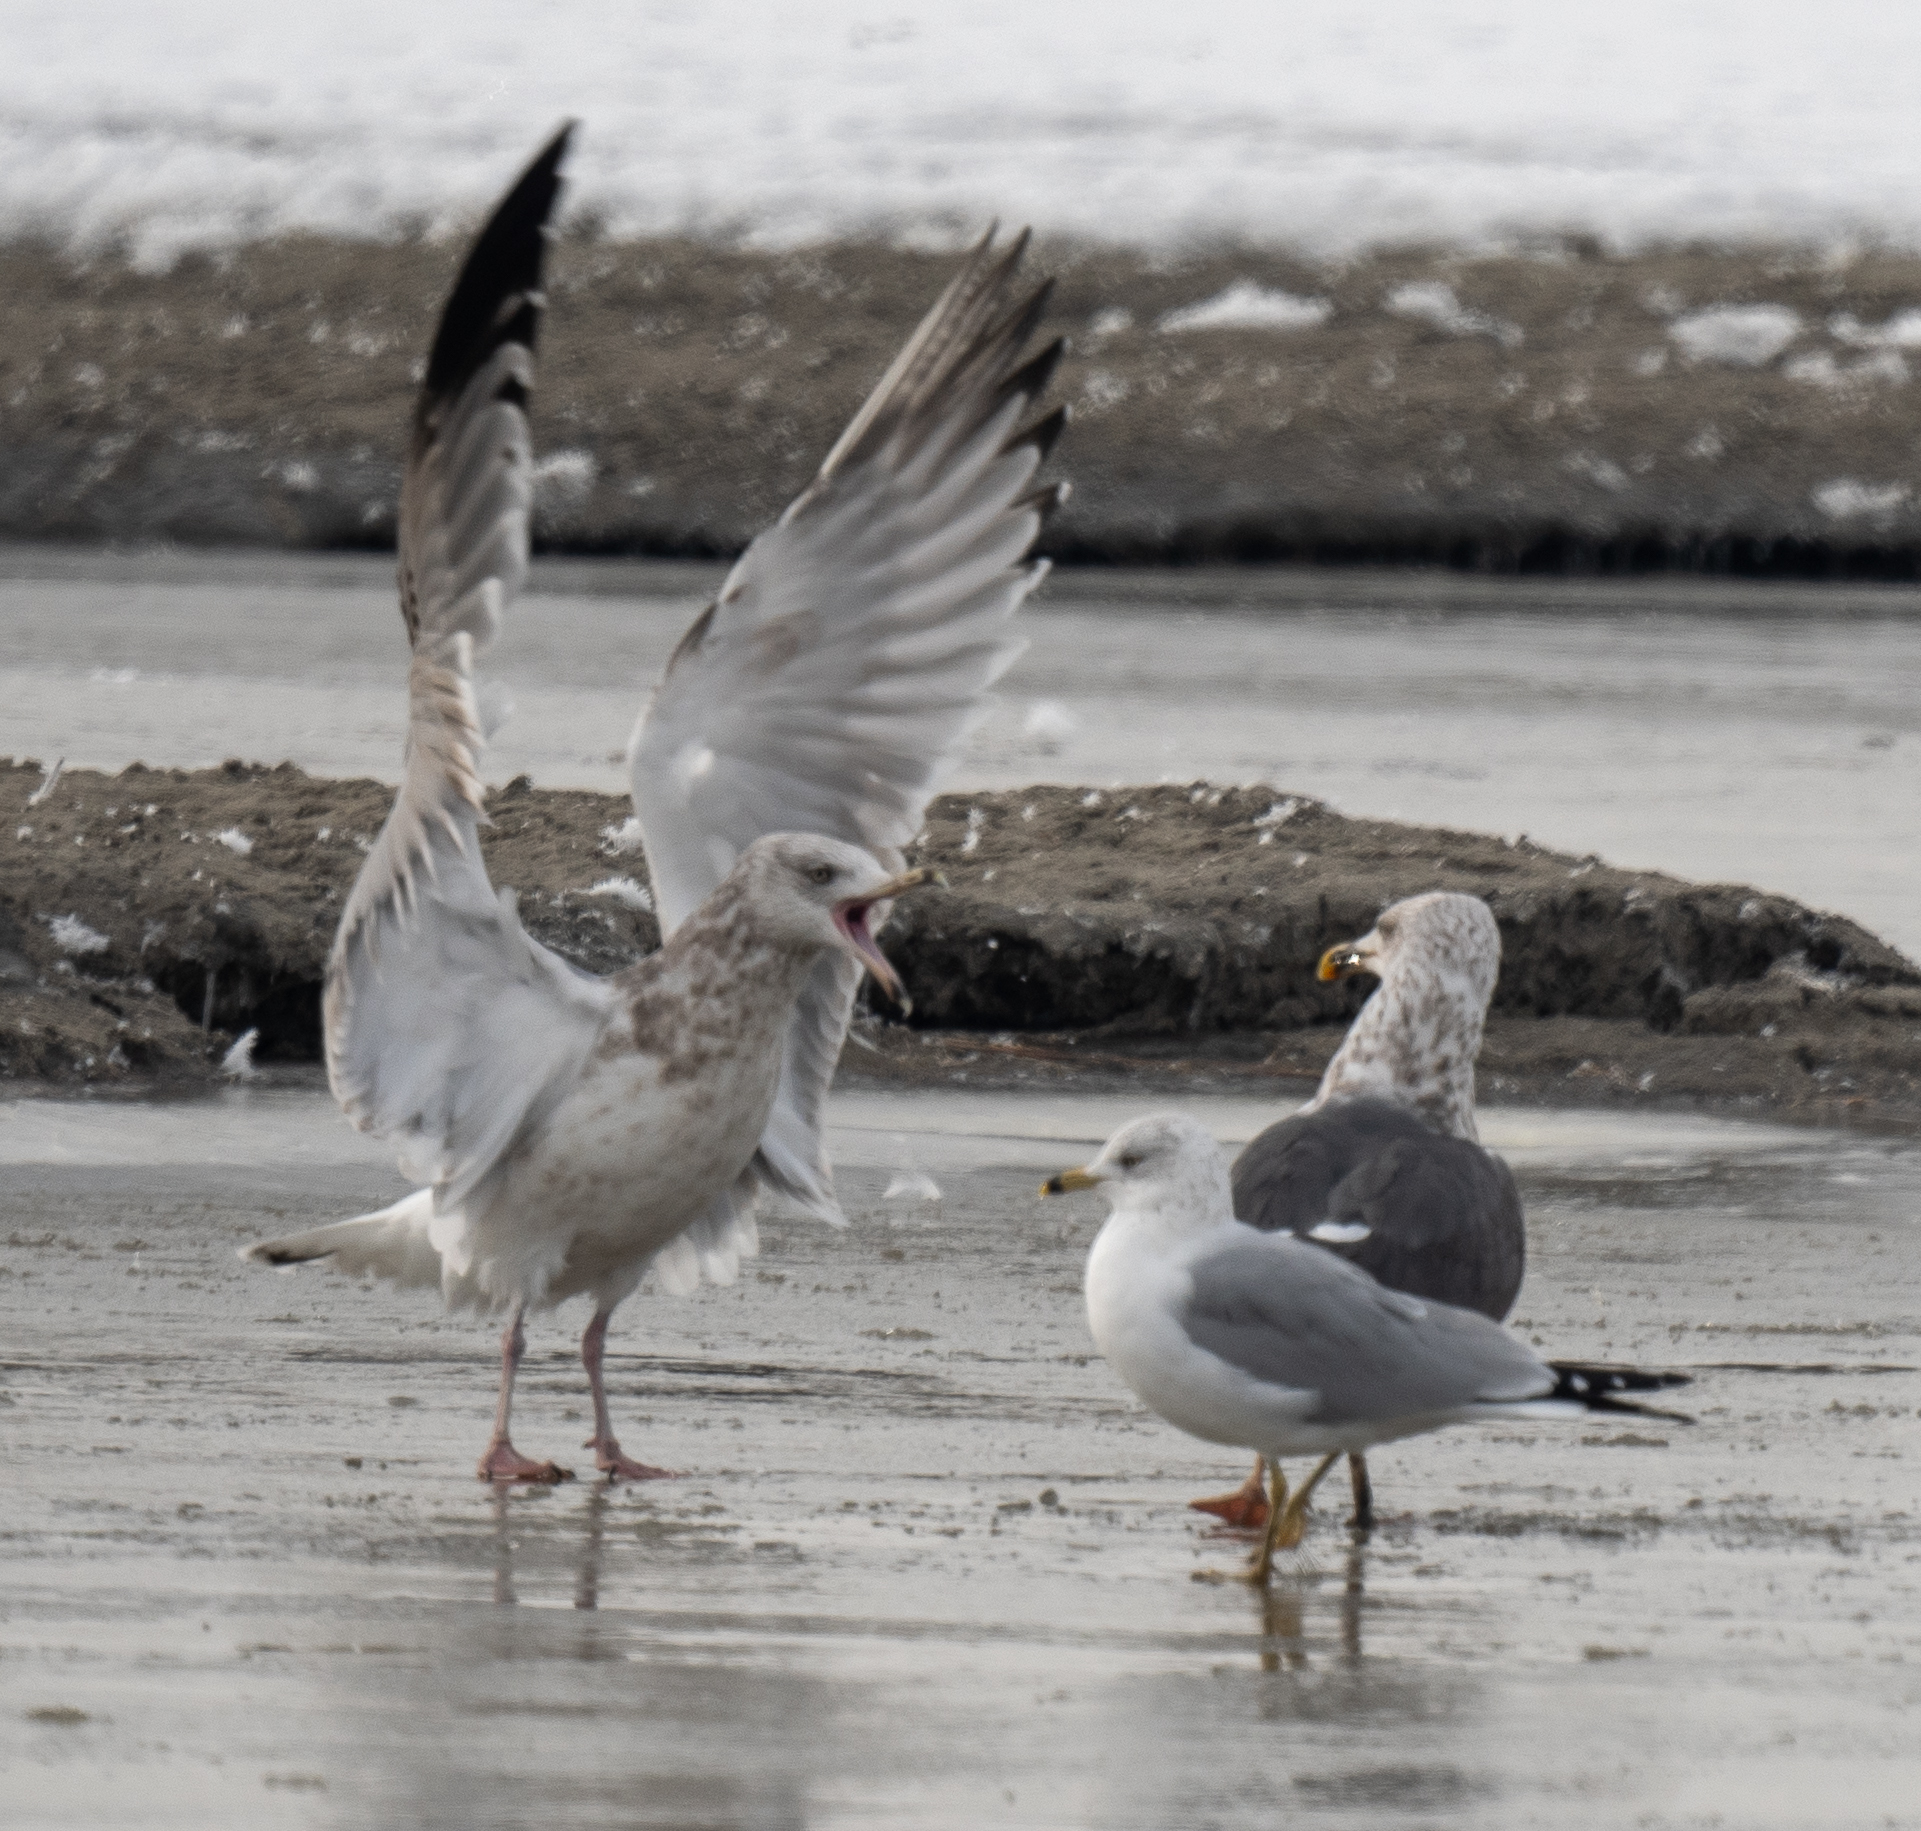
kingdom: Animalia
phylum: Chordata
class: Aves
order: Charadriiformes
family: Laridae
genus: Larus
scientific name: Larus fuscus
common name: Lesser black-backed gull
